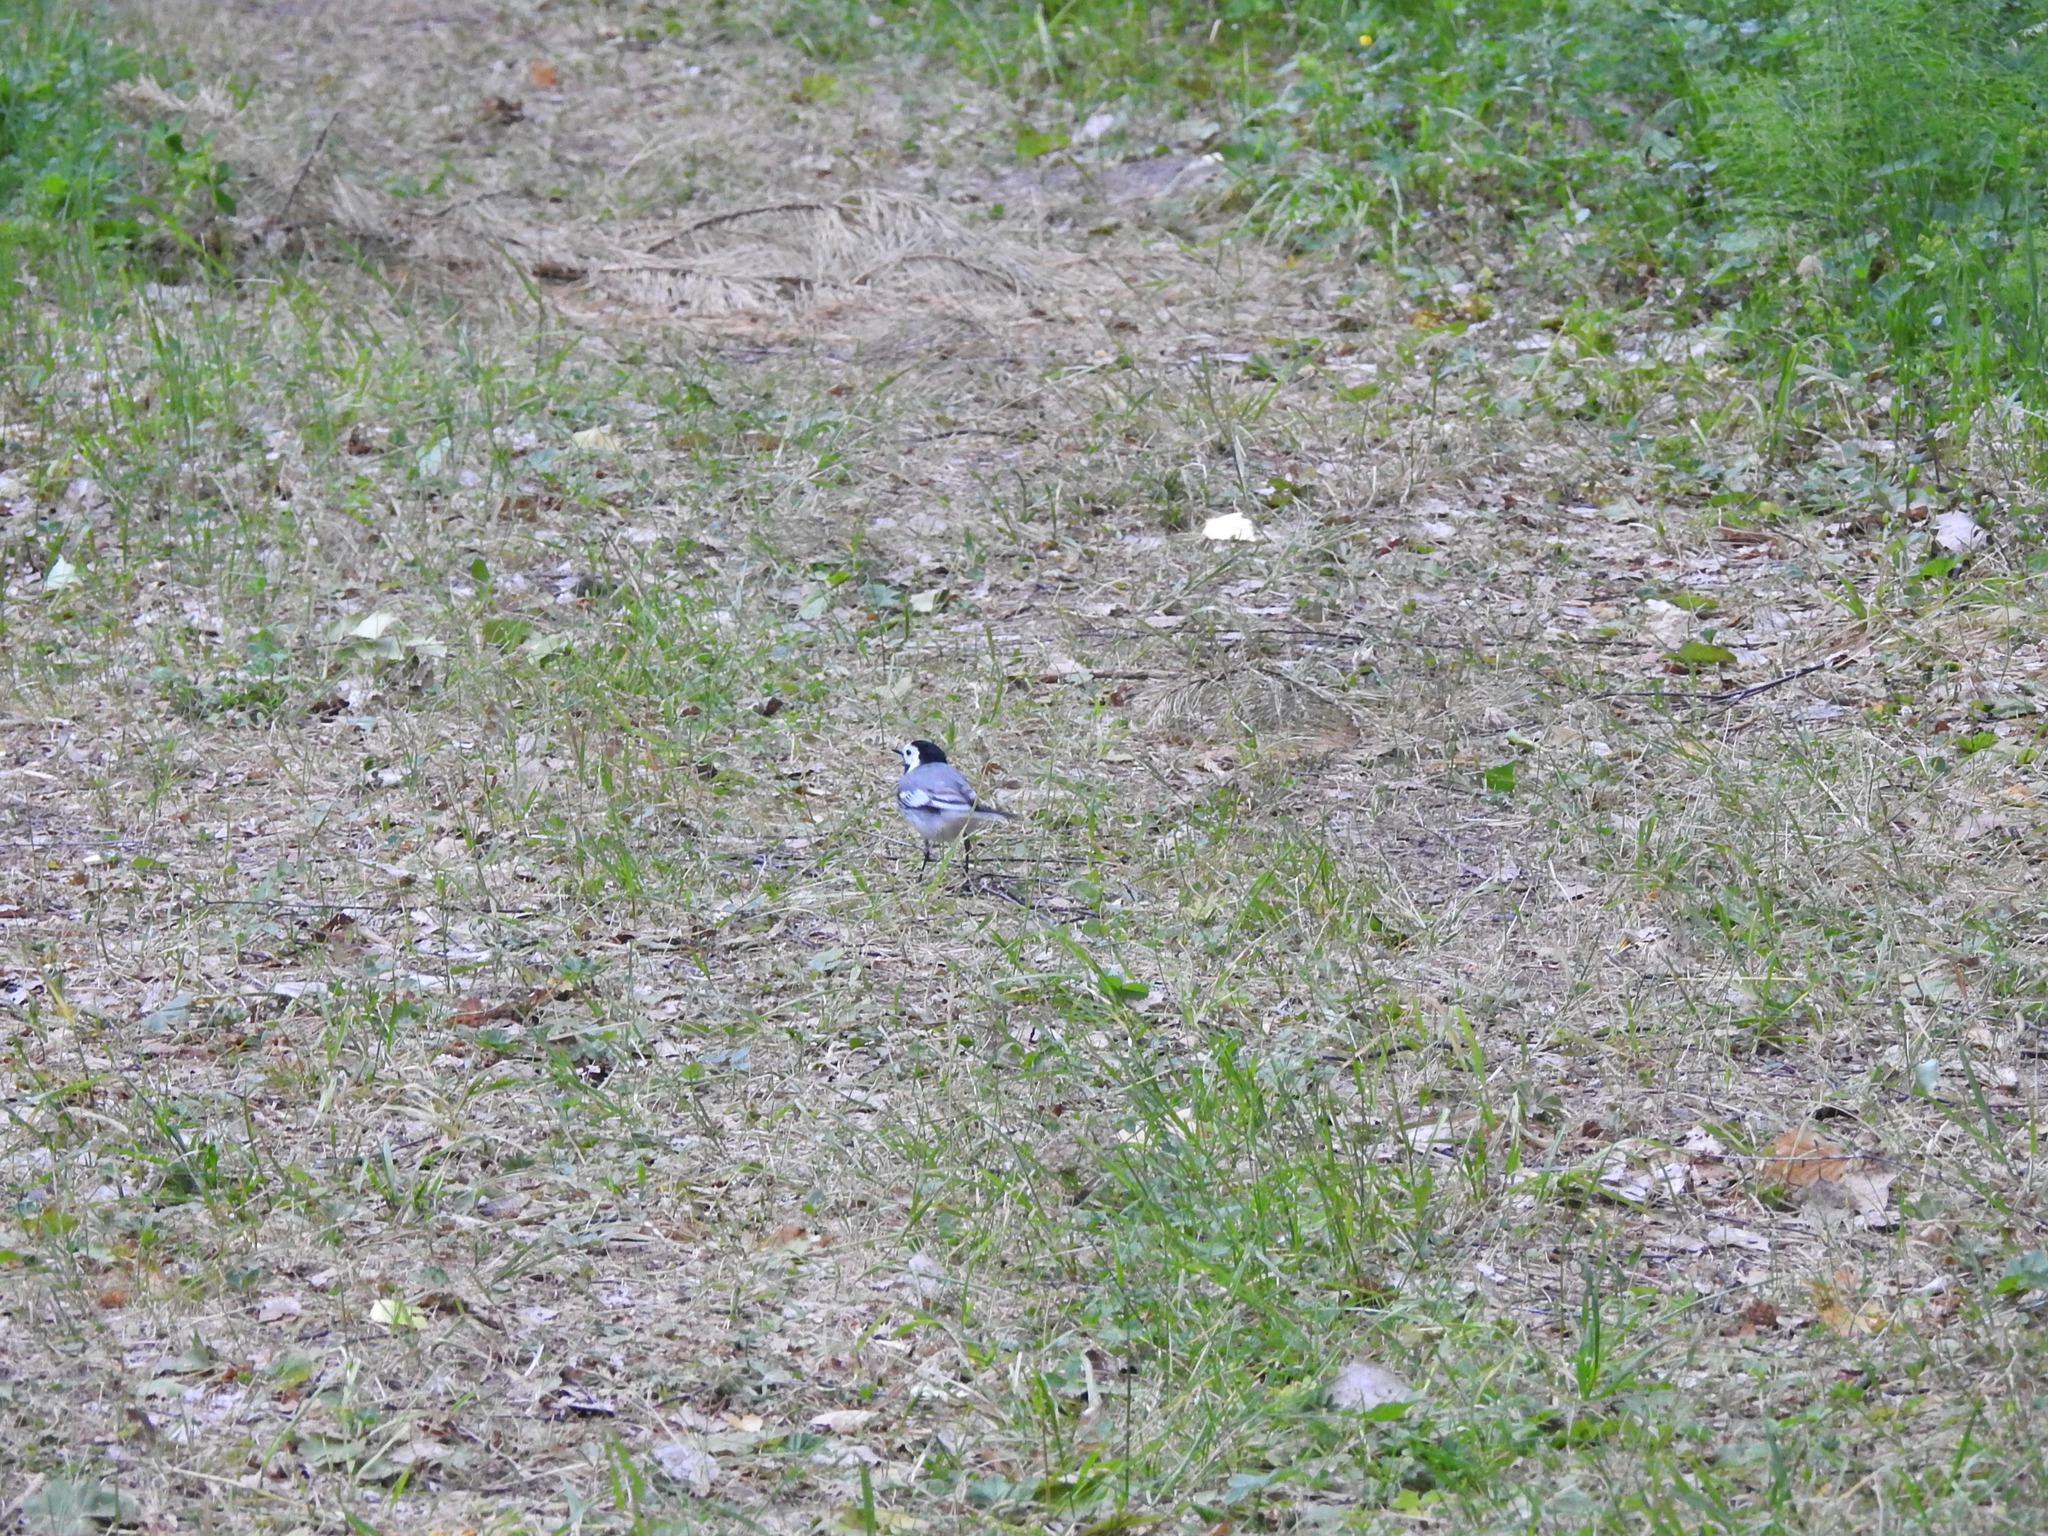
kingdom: Animalia
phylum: Chordata
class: Aves
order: Passeriformes
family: Motacillidae
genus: Motacilla
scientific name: Motacilla alba
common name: White wagtail
